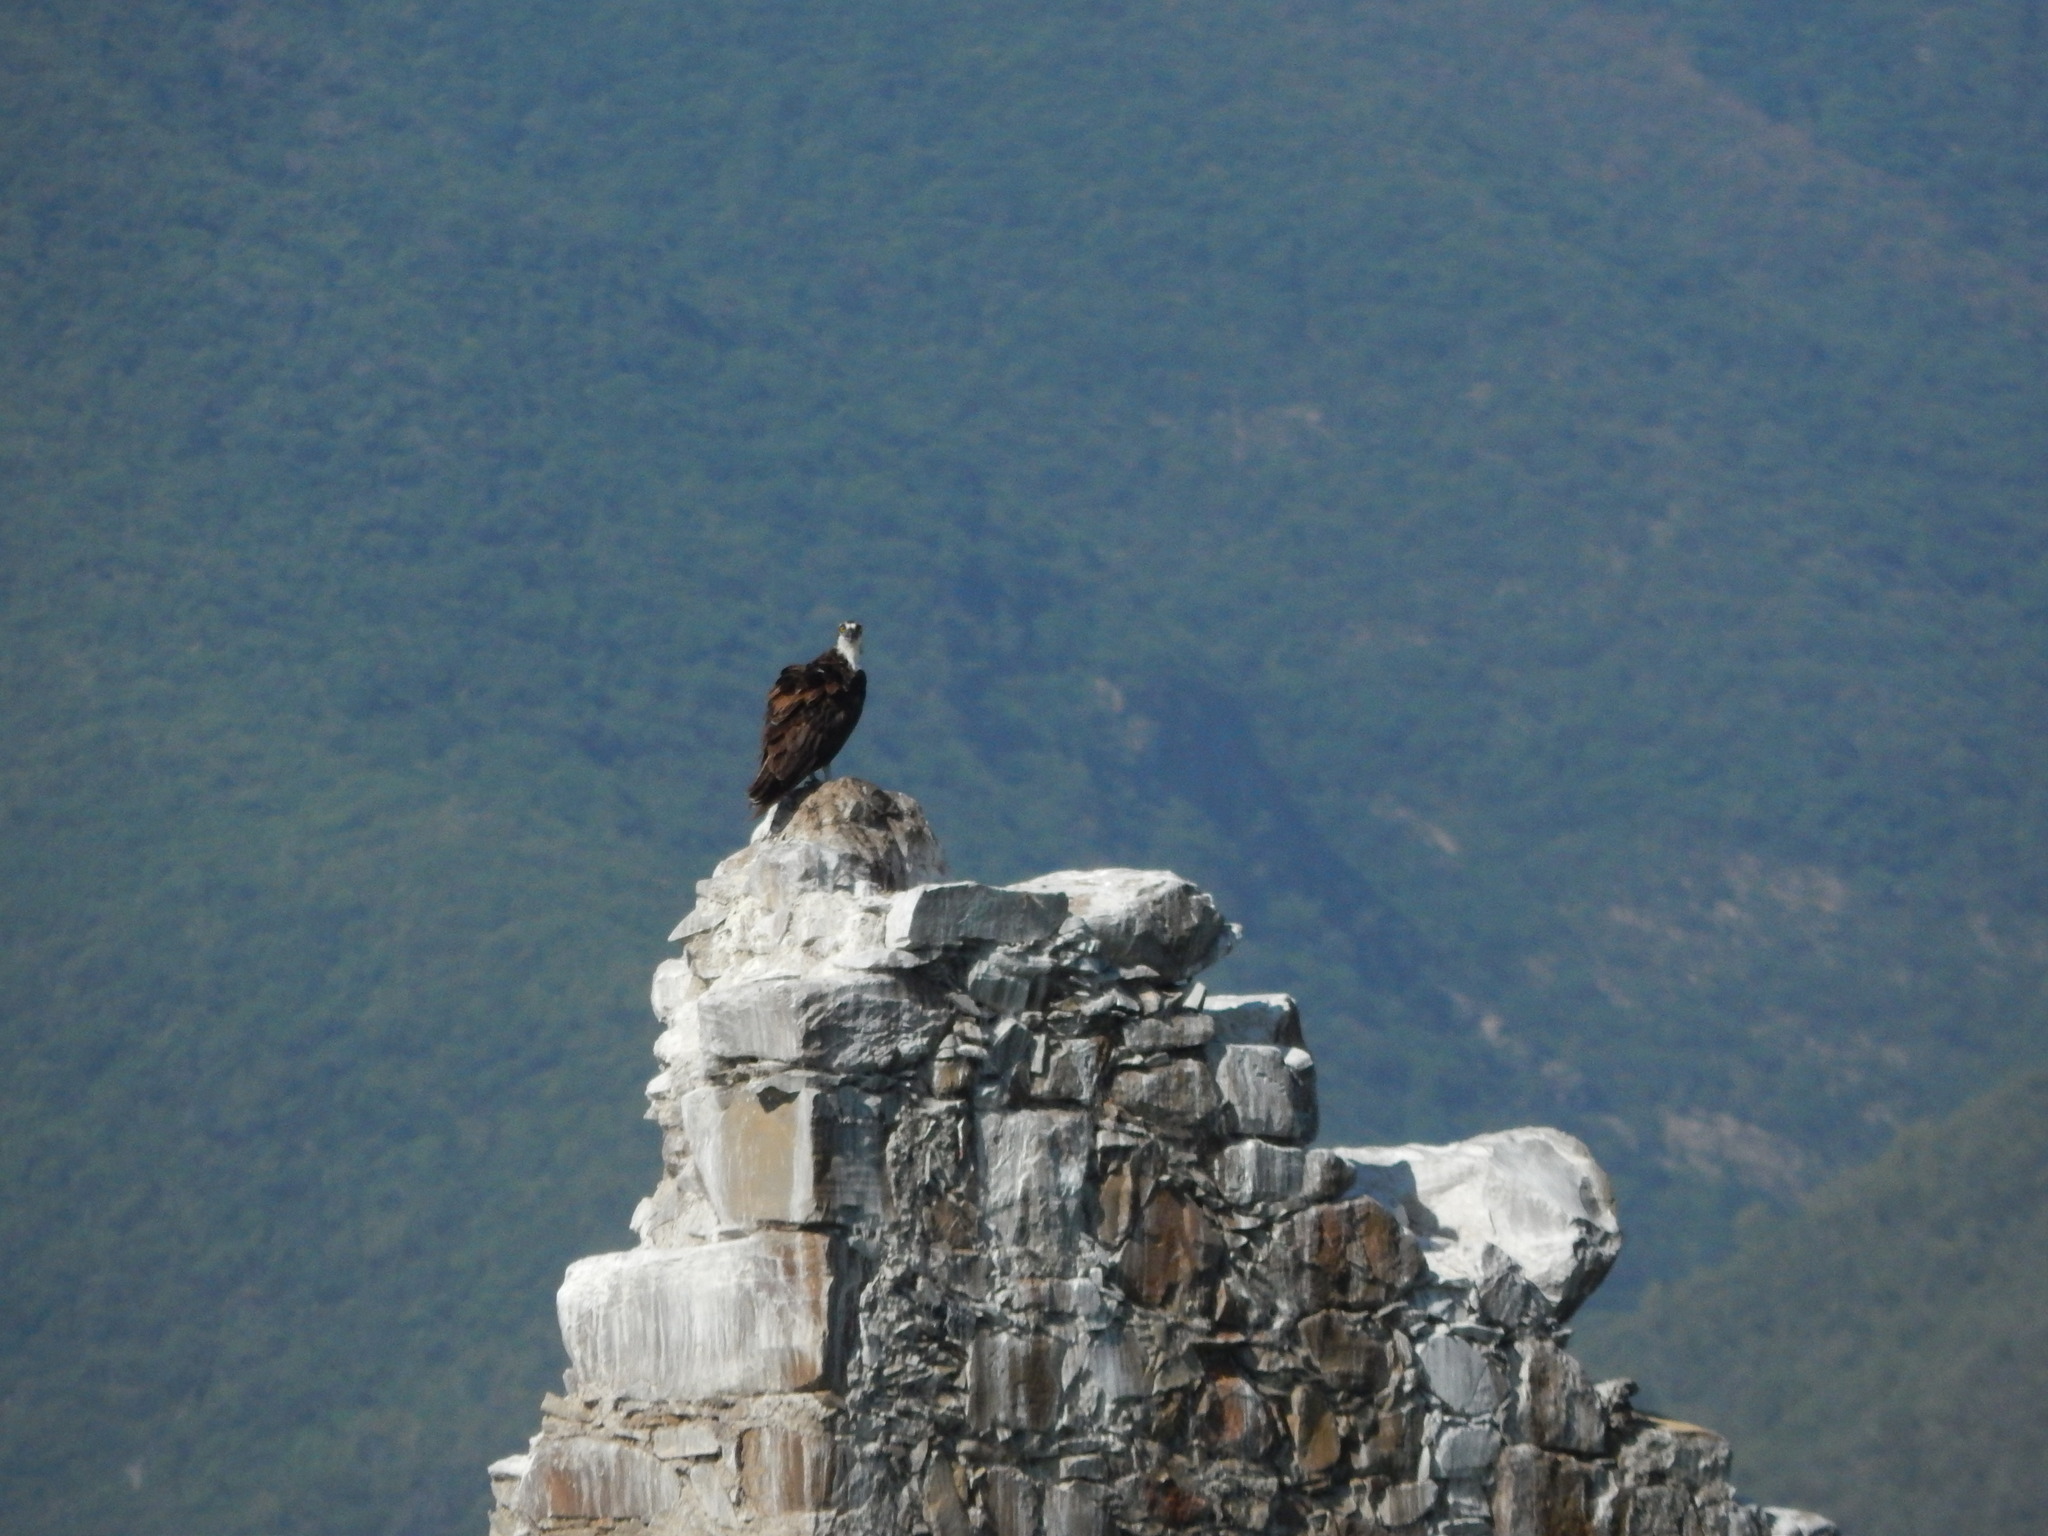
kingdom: Animalia
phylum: Chordata
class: Aves
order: Accipitriformes
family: Pandionidae
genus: Pandion
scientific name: Pandion haliaetus
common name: Osprey
